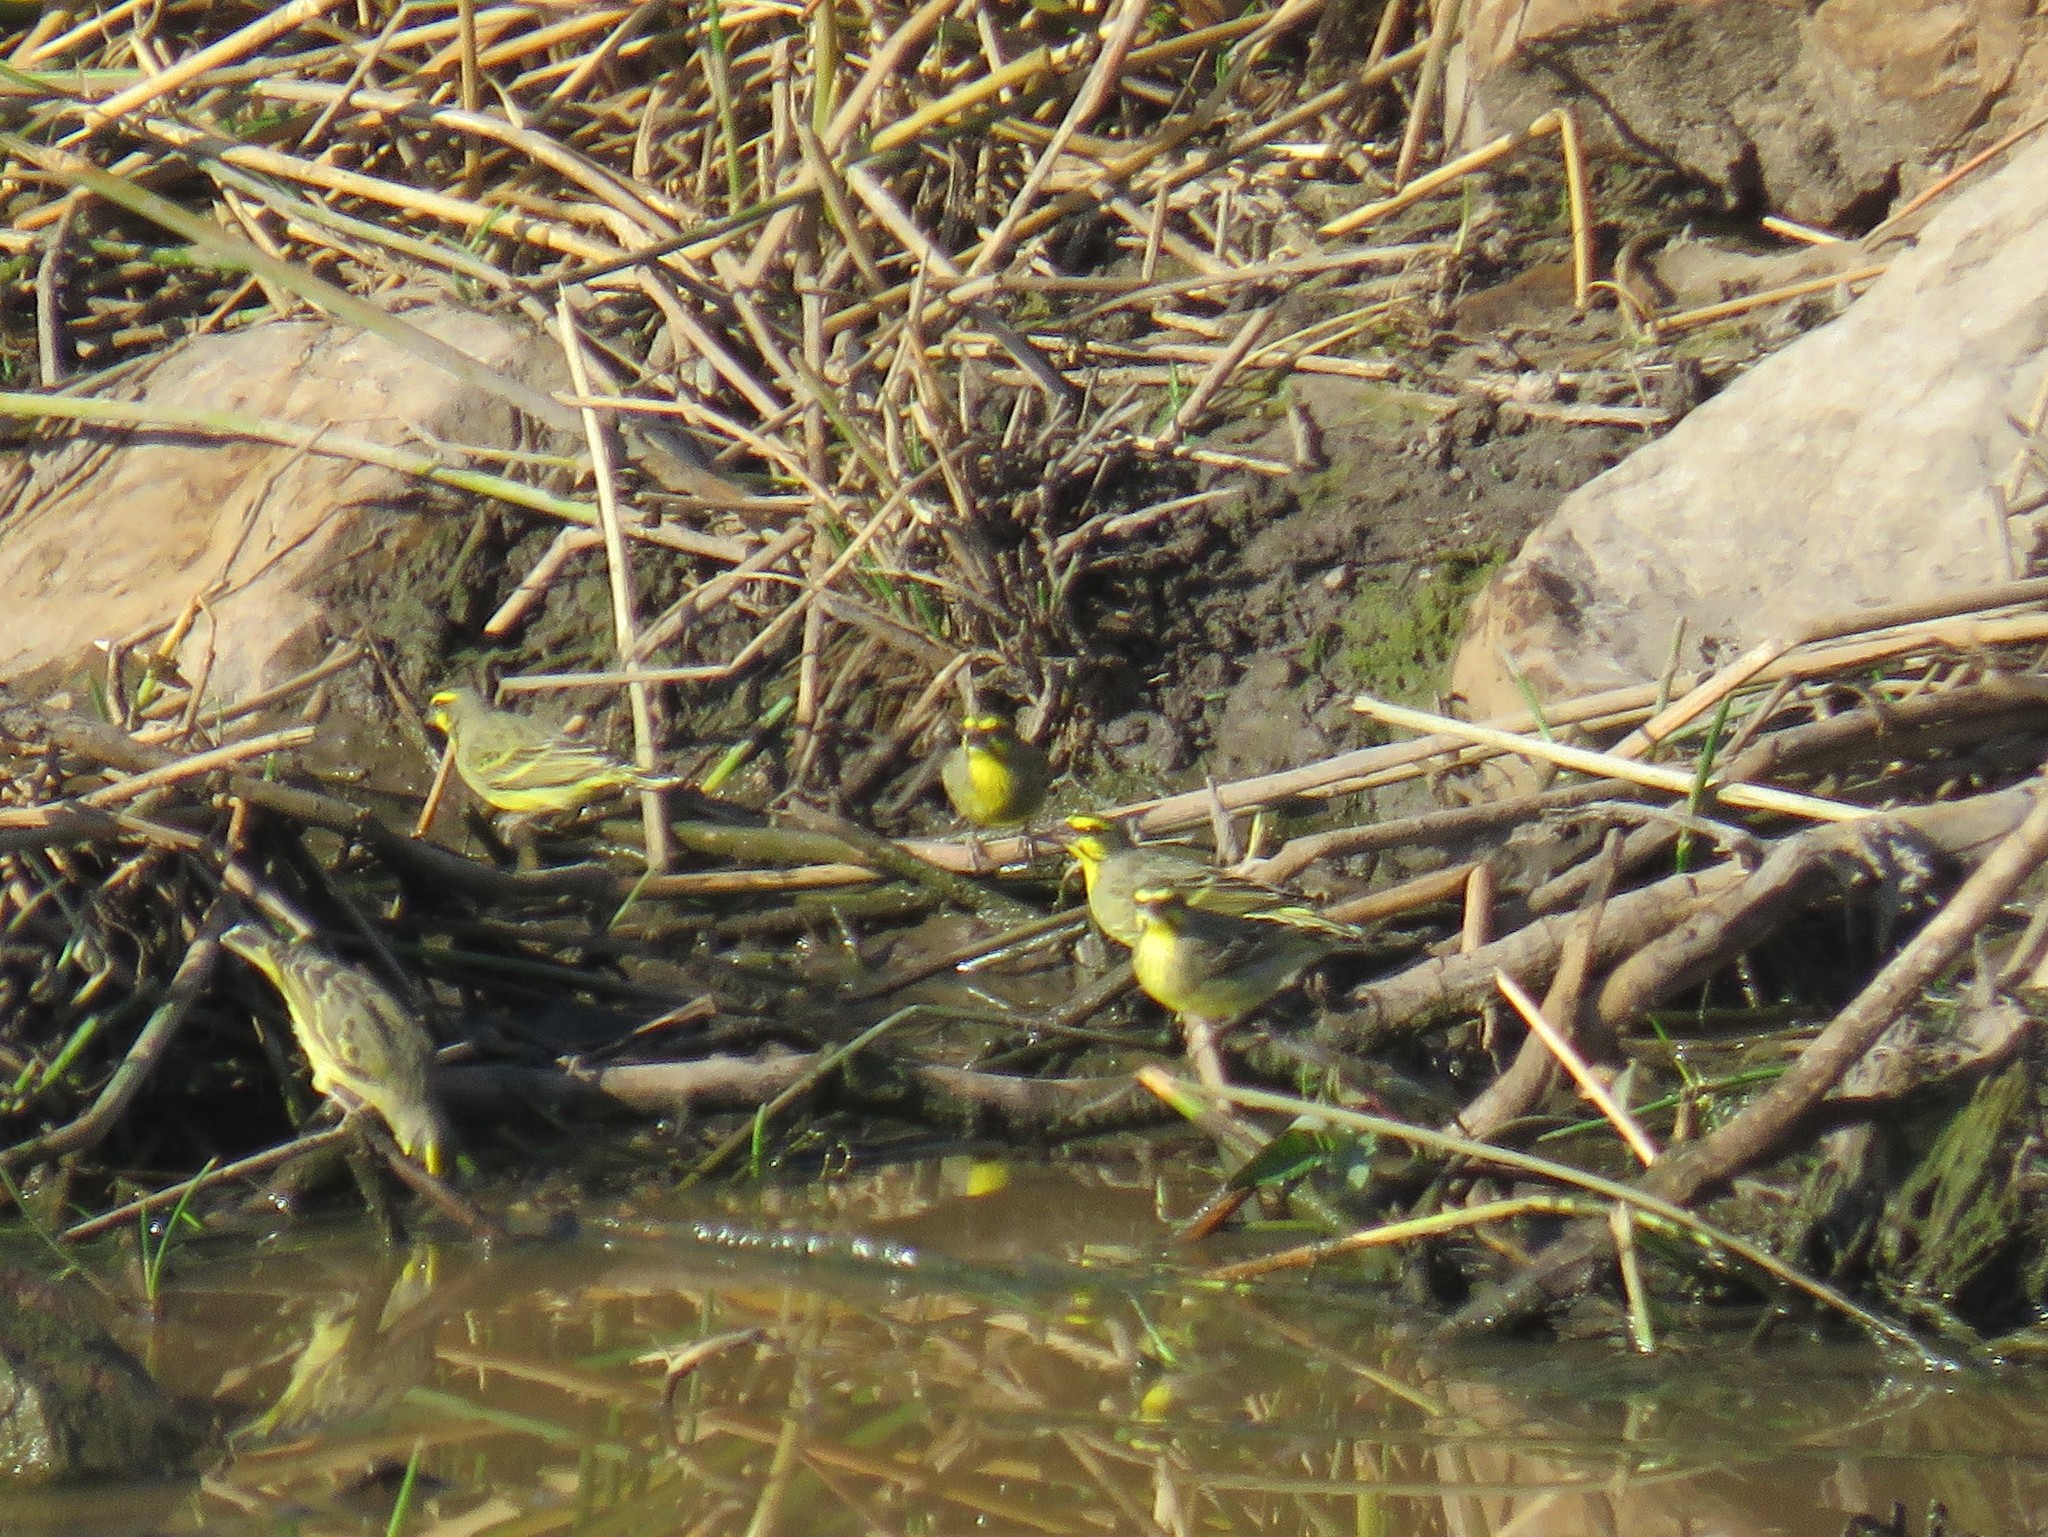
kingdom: Animalia
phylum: Chordata
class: Aves
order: Passeriformes
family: Fringillidae
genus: Crithagra
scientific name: Crithagra mozambica
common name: Yellow-fronted canary
